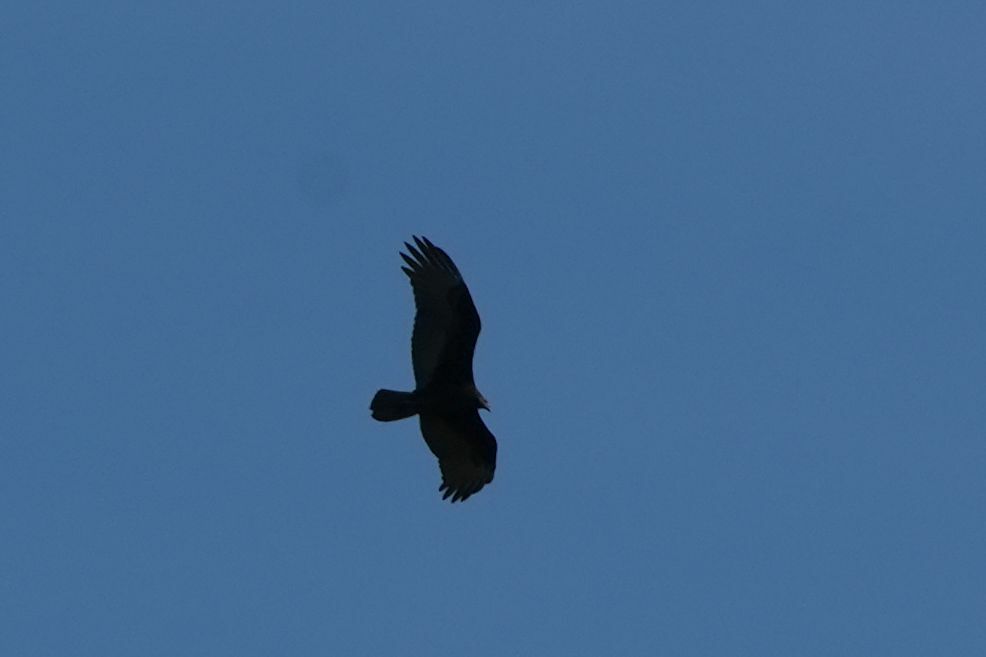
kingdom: Animalia
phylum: Chordata
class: Aves
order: Accipitriformes
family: Cathartidae
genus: Cathartes
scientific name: Cathartes aura
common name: Turkey vulture
